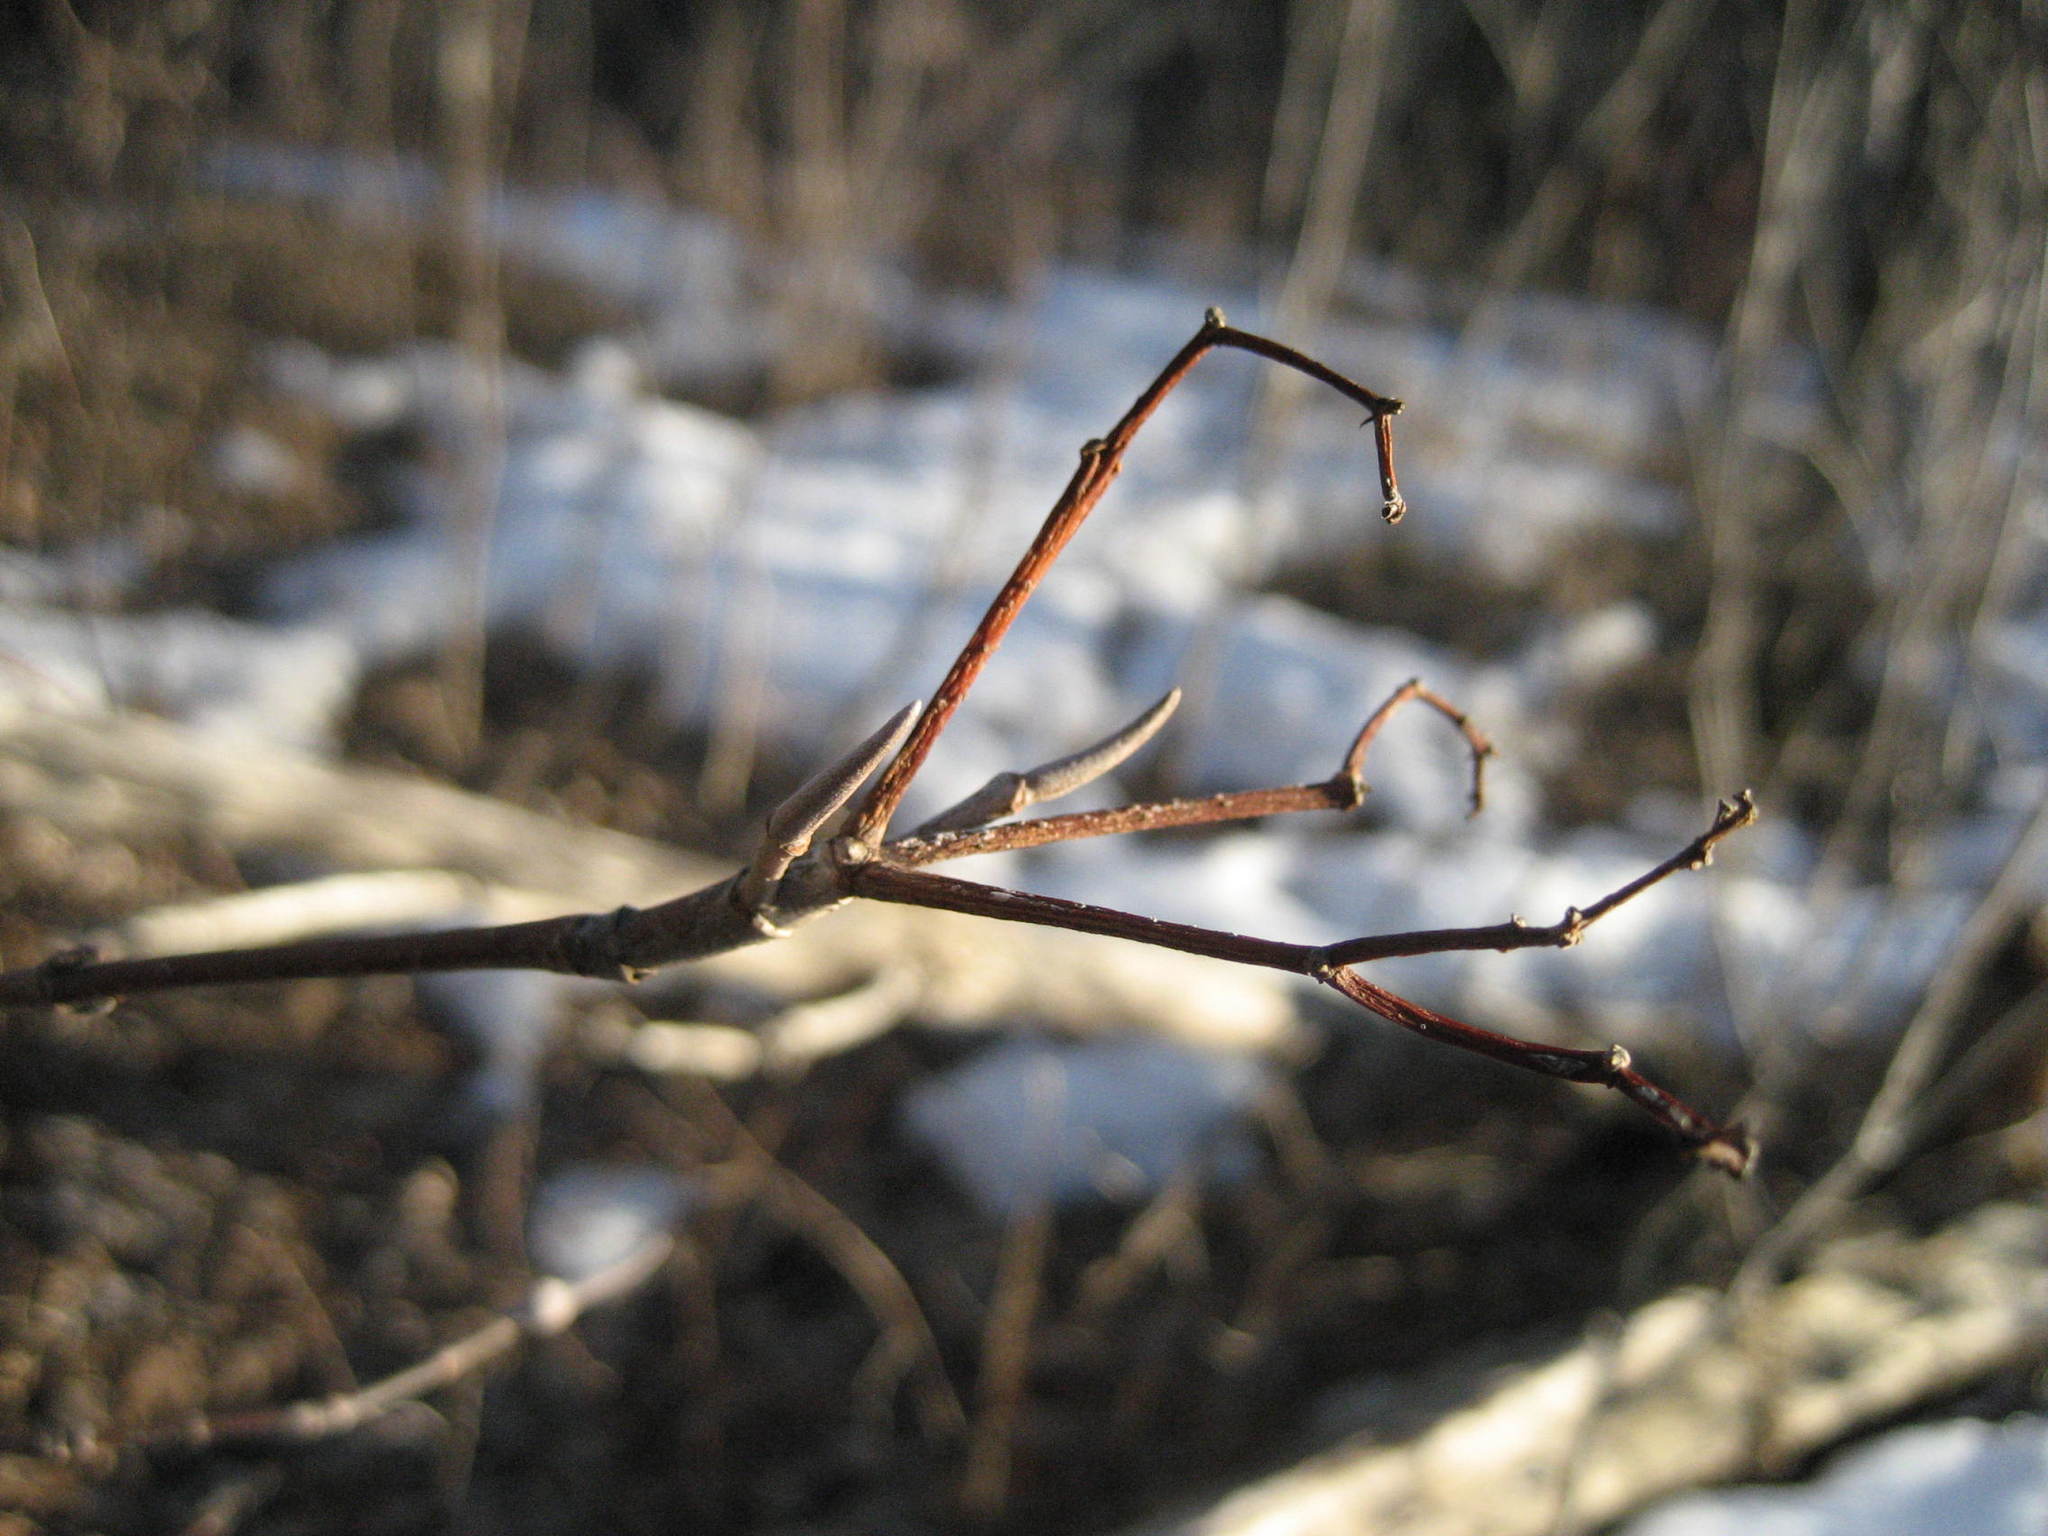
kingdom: Plantae
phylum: Tracheophyta
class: Magnoliopsida
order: Dipsacales
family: Viburnaceae
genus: Viburnum
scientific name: Viburnum lentago
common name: Black haw
